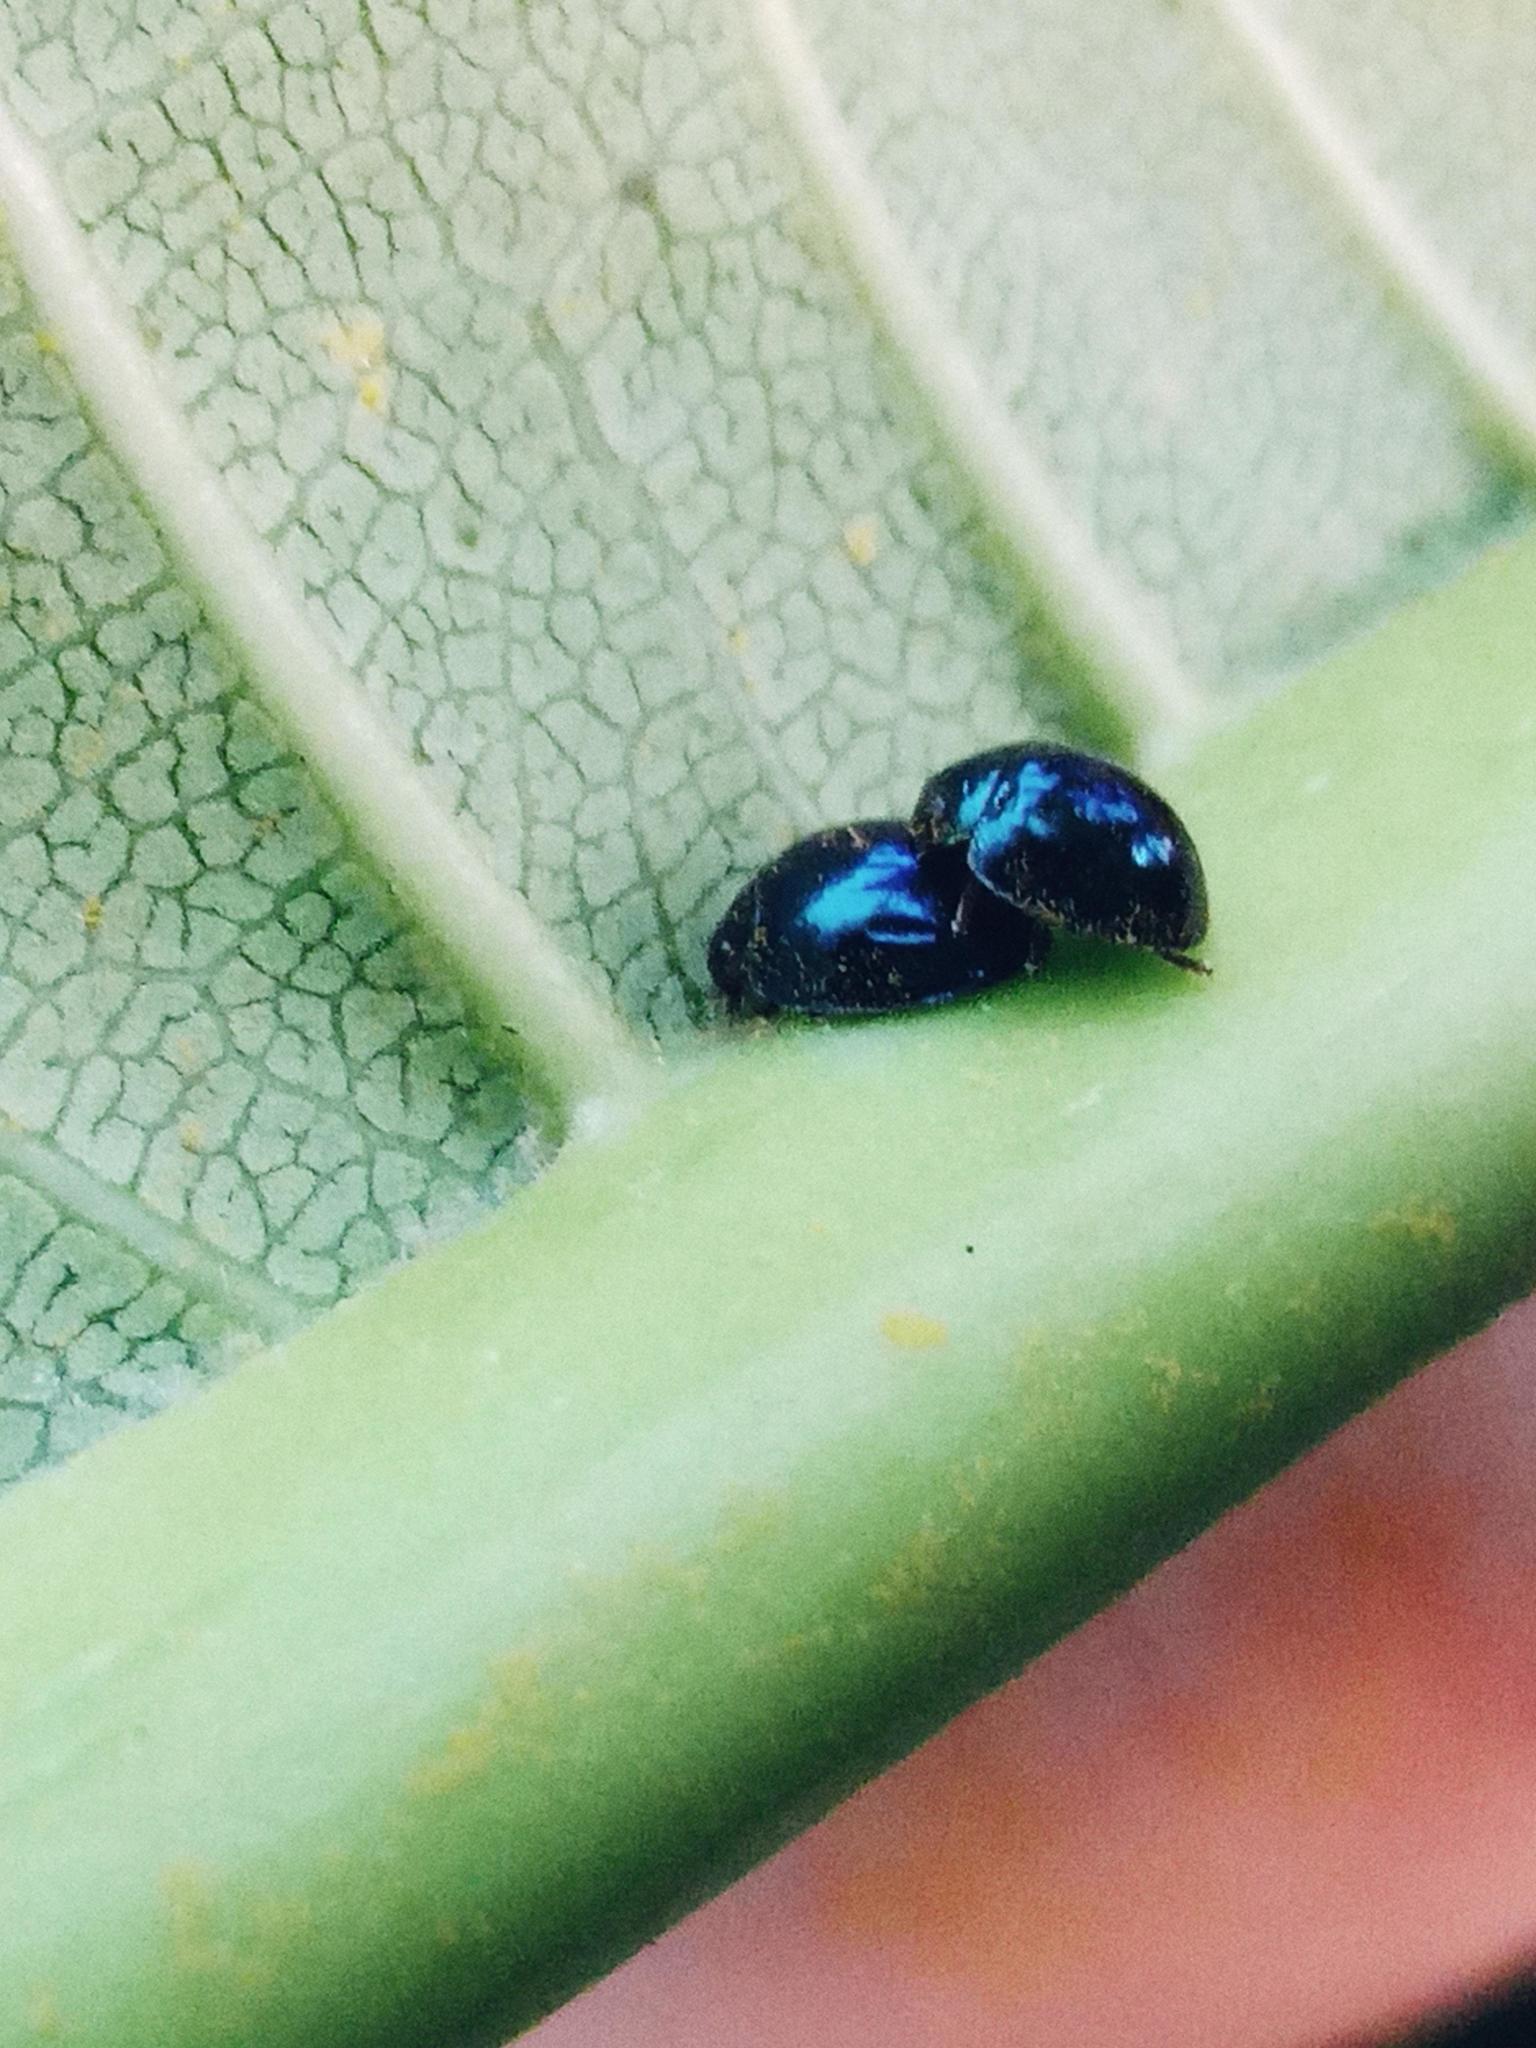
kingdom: Animalia
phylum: Arthropoda
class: Insecta
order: Coleoptera
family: Coccinellidae
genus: Halmus
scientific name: Halmus chalybeus
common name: Steel blue ladybird beetle
